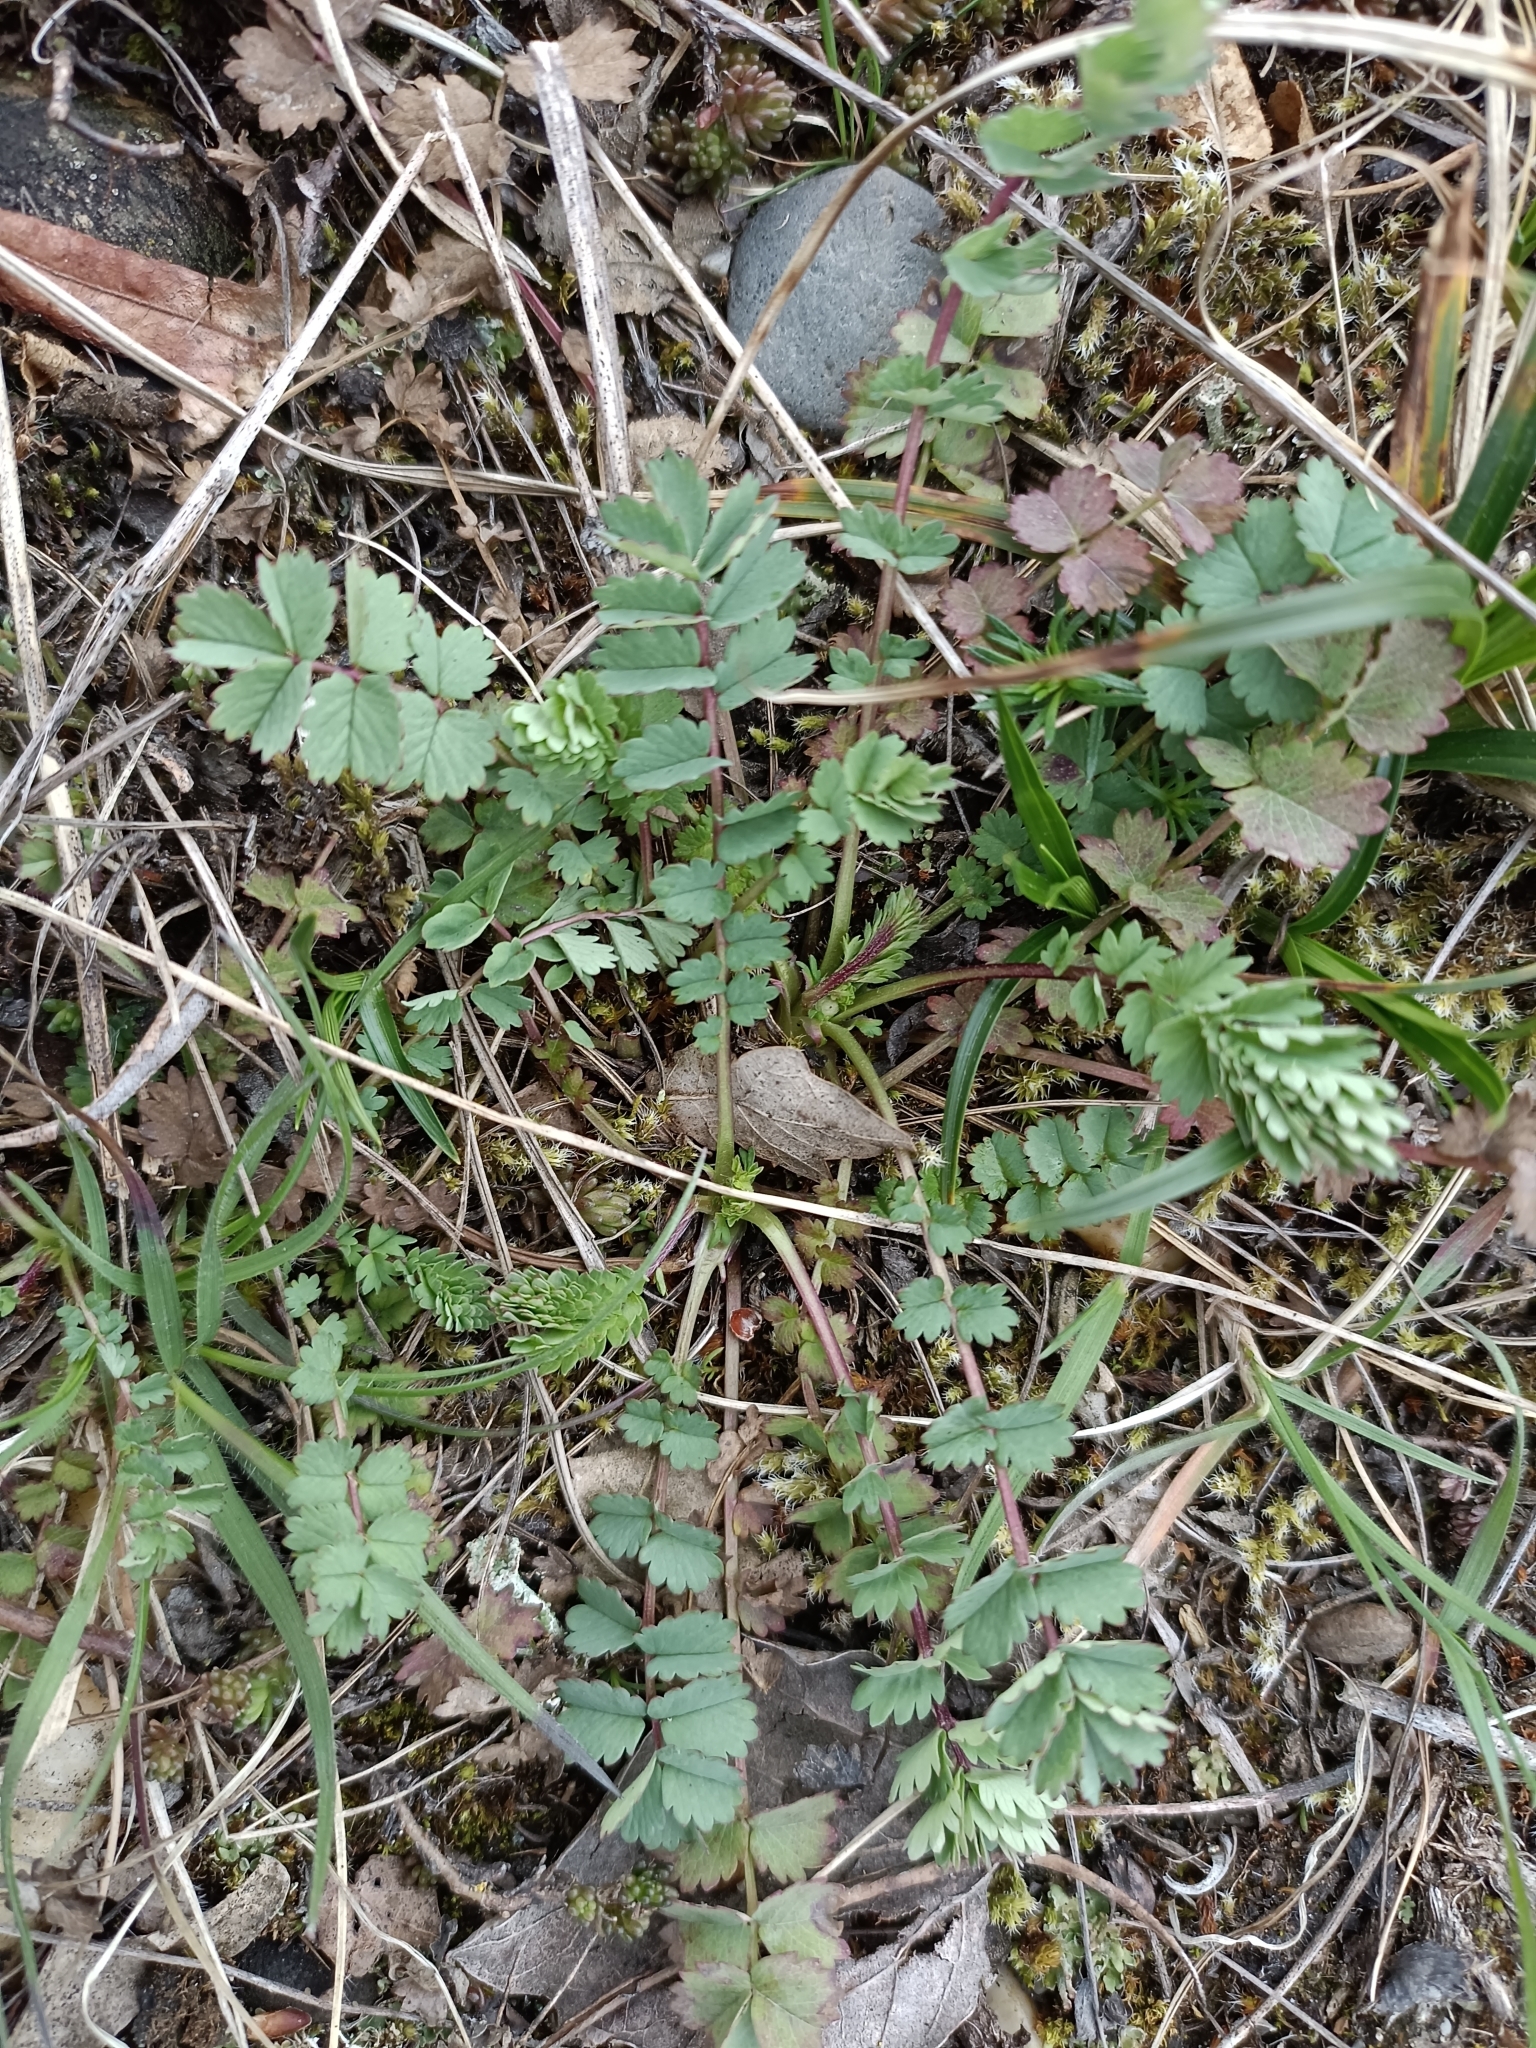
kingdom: Plantae
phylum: Tracheophyta
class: Magnoliopsida
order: Rosales
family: Rosaceae
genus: Poterium
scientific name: Poterium sanguisorba
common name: Salad burnet
